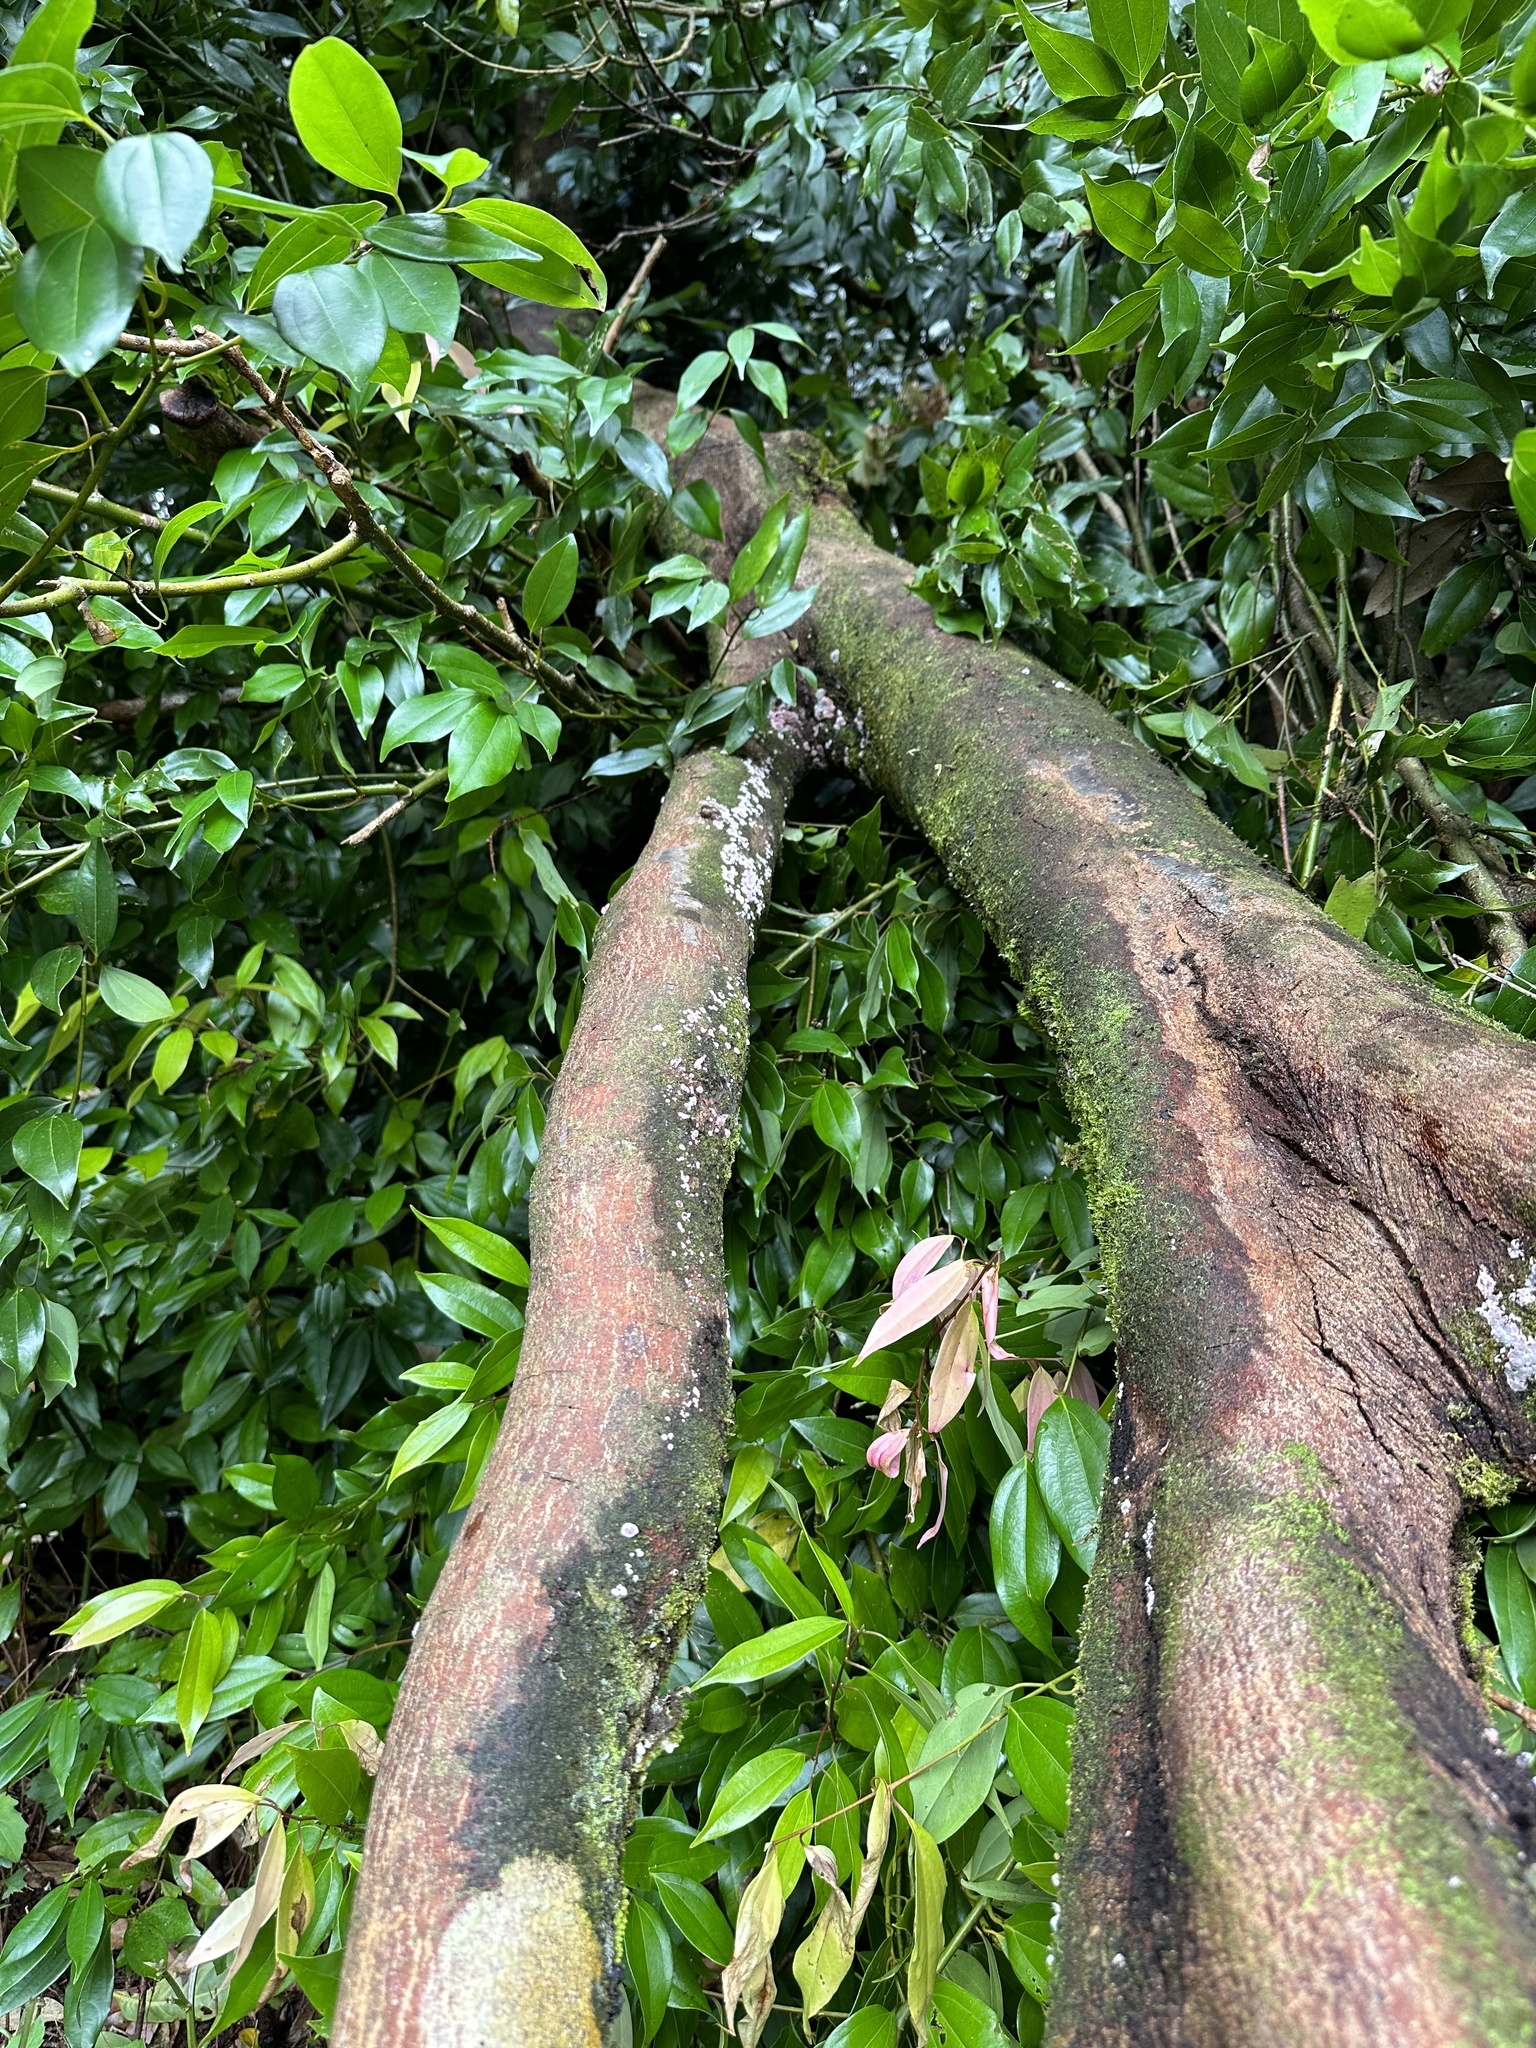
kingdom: Fungi
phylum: Basidiomycota
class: Agaricomycetes
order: Corticiales
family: Punctulariaceae
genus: Punctularia
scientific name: Punctularia atropurpurascens
